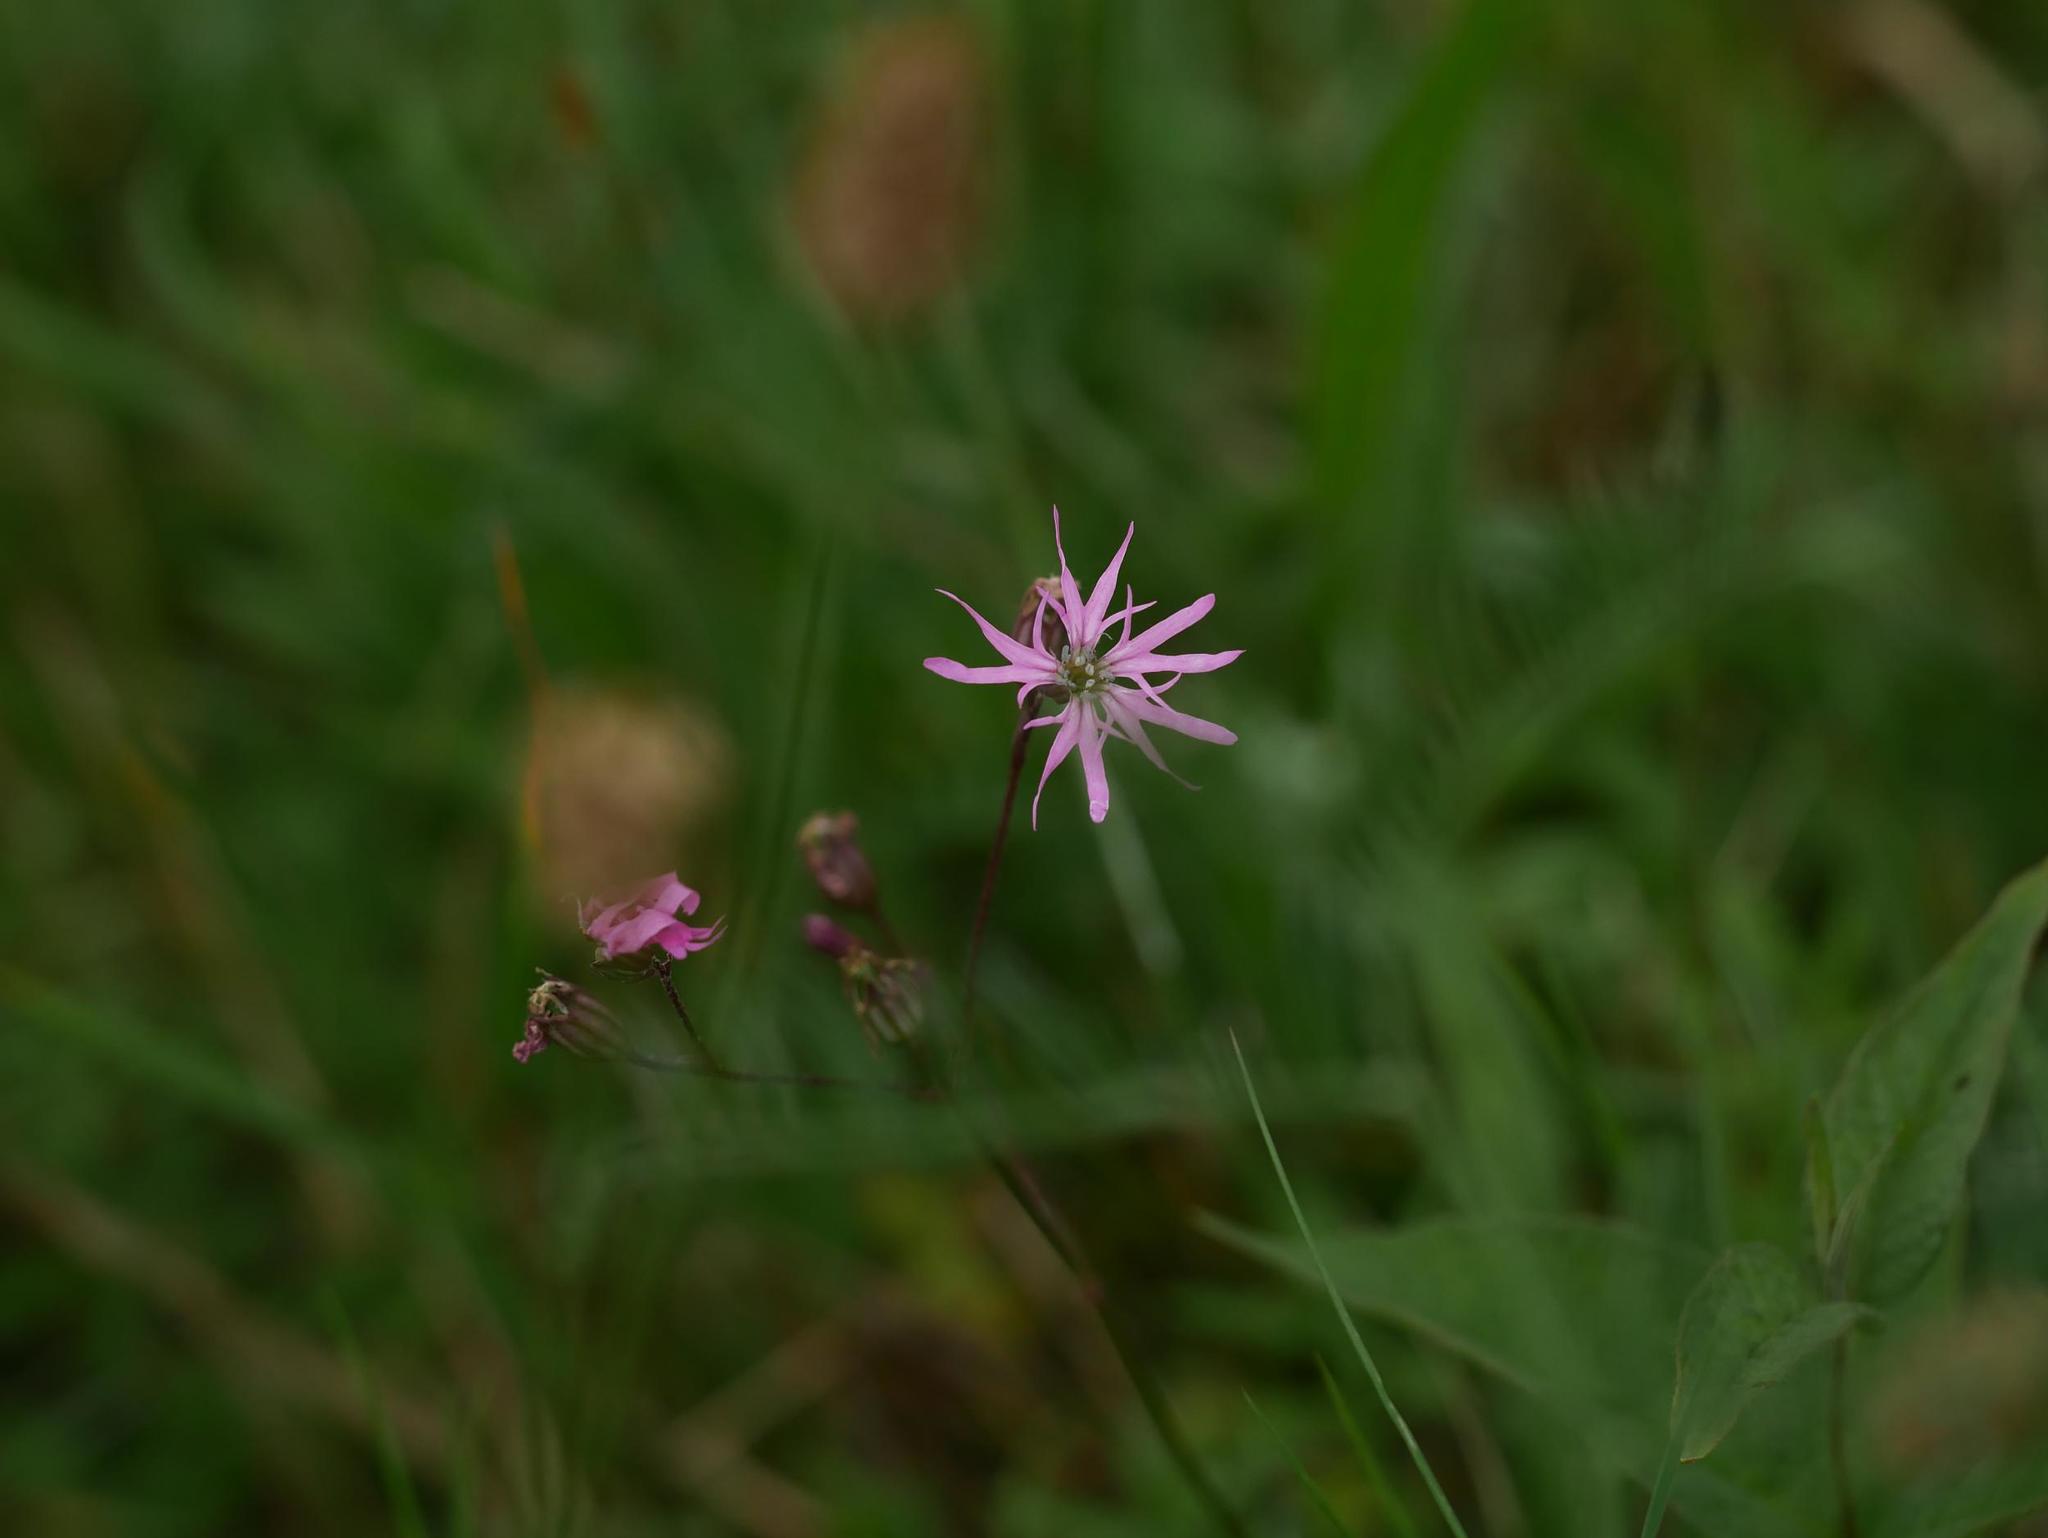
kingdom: Plantae
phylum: Tracheophyta
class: Magnoliopsida
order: Caryophyllales
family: Caryophyllaceae
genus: Silene
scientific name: Silene flos-cuculi
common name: Ragged-robin
